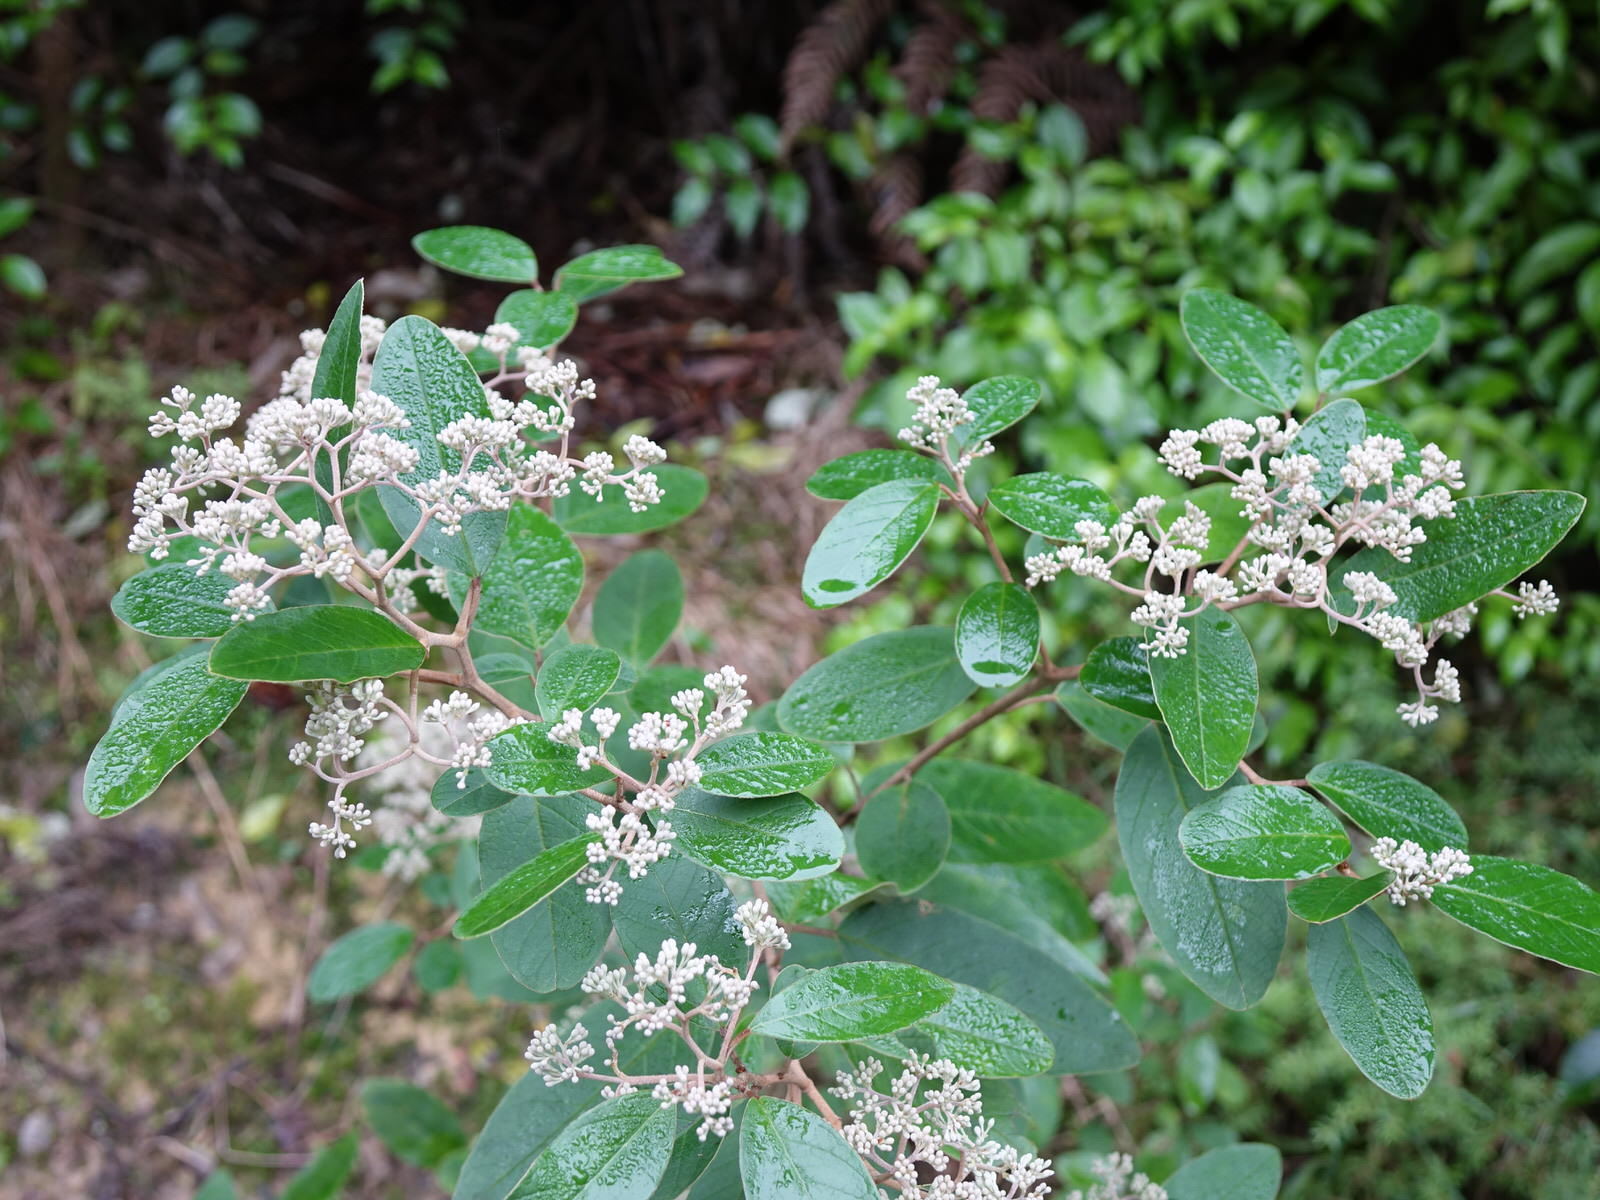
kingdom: Plantae
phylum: Tracheophyta
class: Magnoliopsida
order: Rosales
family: Rhamnaceae
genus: Pomaderris
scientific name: Pomaderris kumeraho
